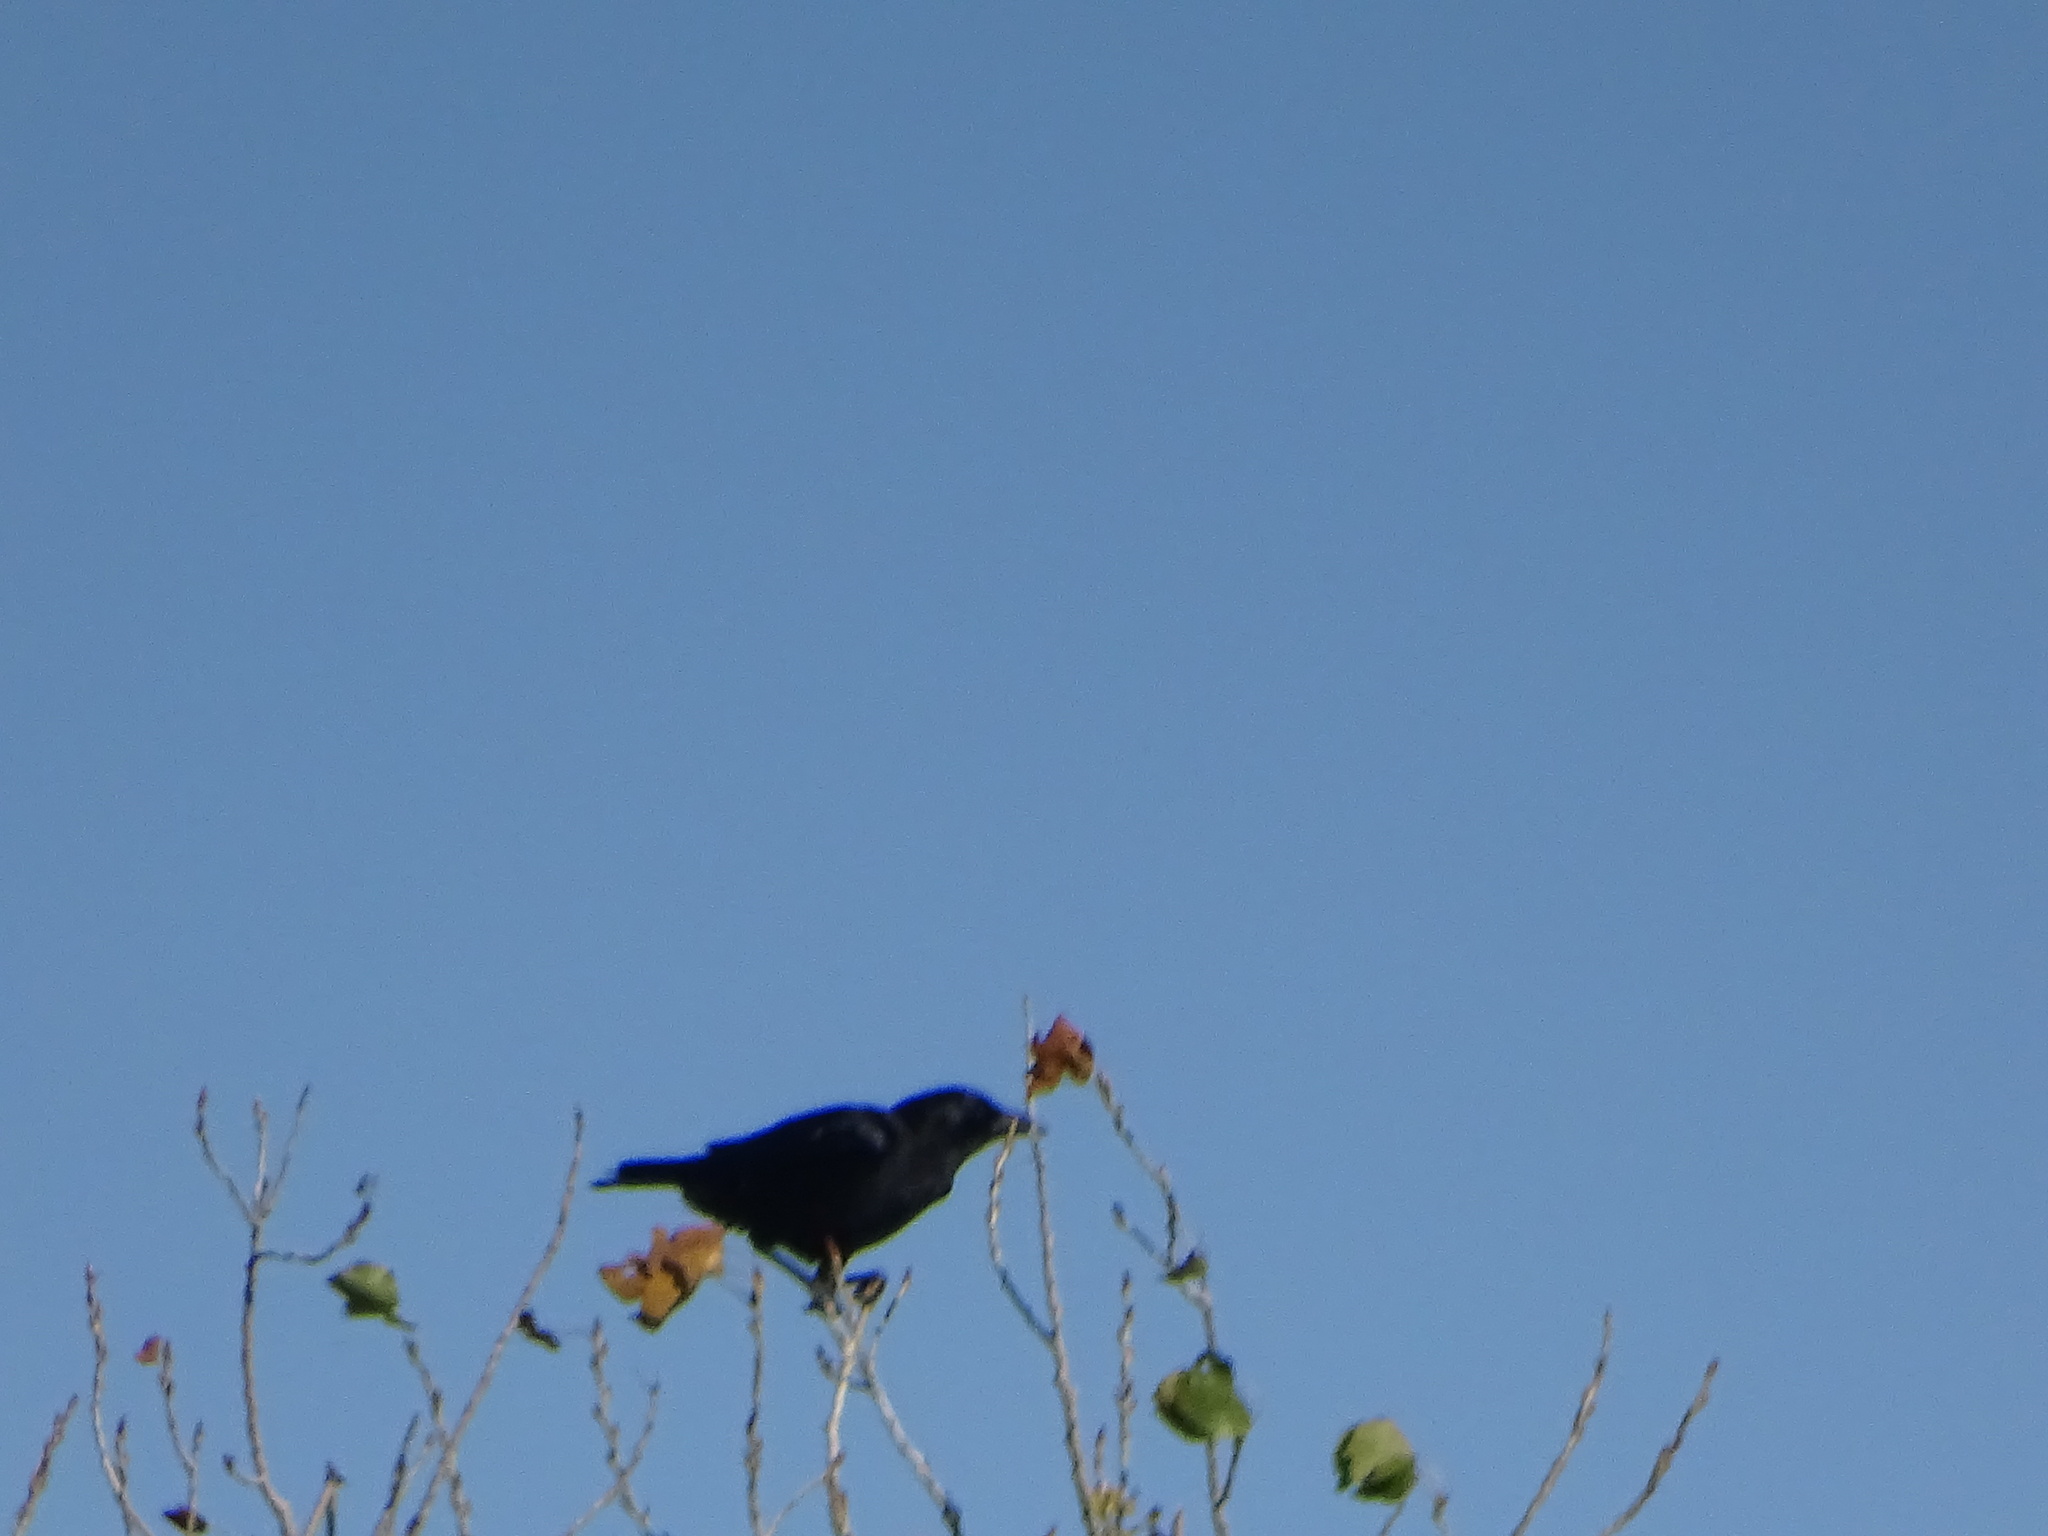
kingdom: Animalia
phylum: Chordata
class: Aves
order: Passeriformes
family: Corvidae
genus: Corvus
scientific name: Corvus brachyrhynchos
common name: American crow
